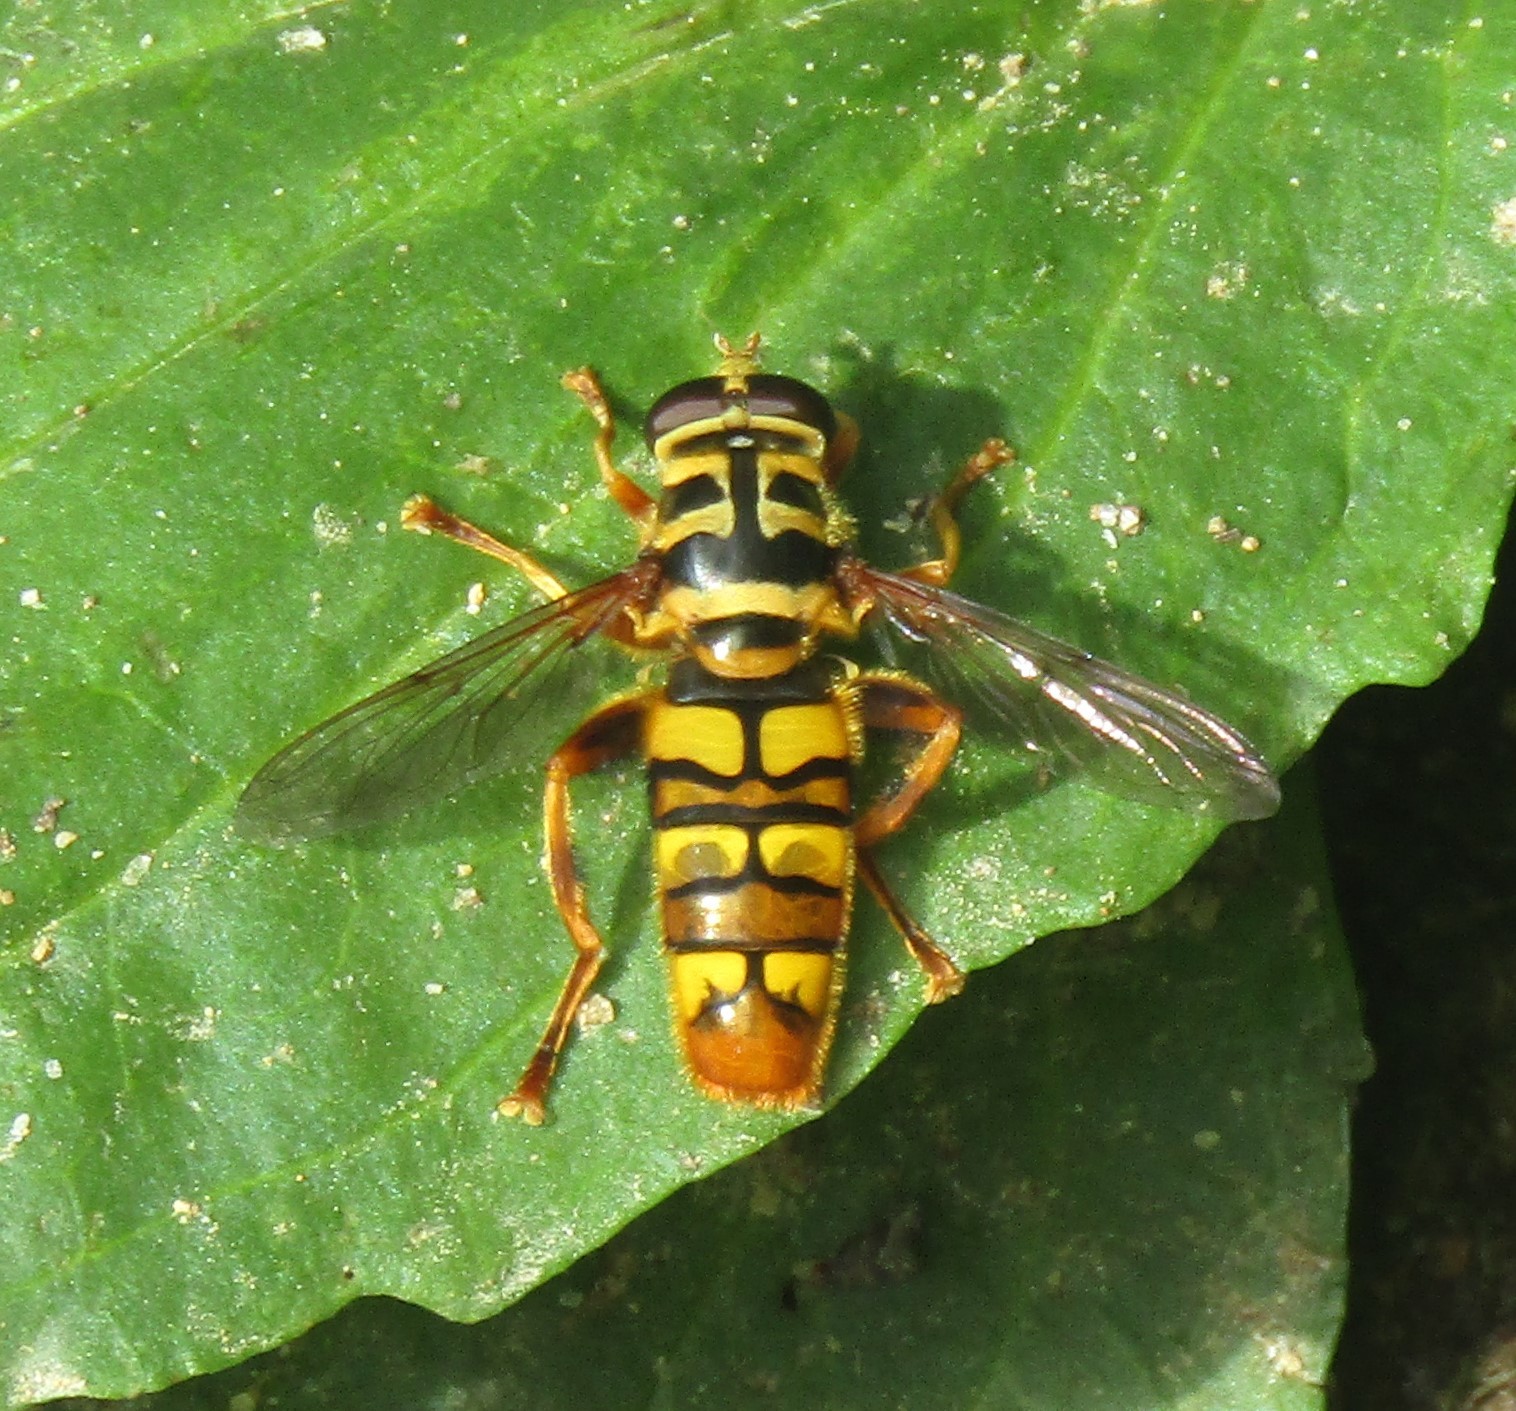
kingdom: Animalia
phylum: Arthropoda
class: Insecta
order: Diptera
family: Syrphidae
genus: Milesia
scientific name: Milesia virginiensis
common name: Virginia giant
